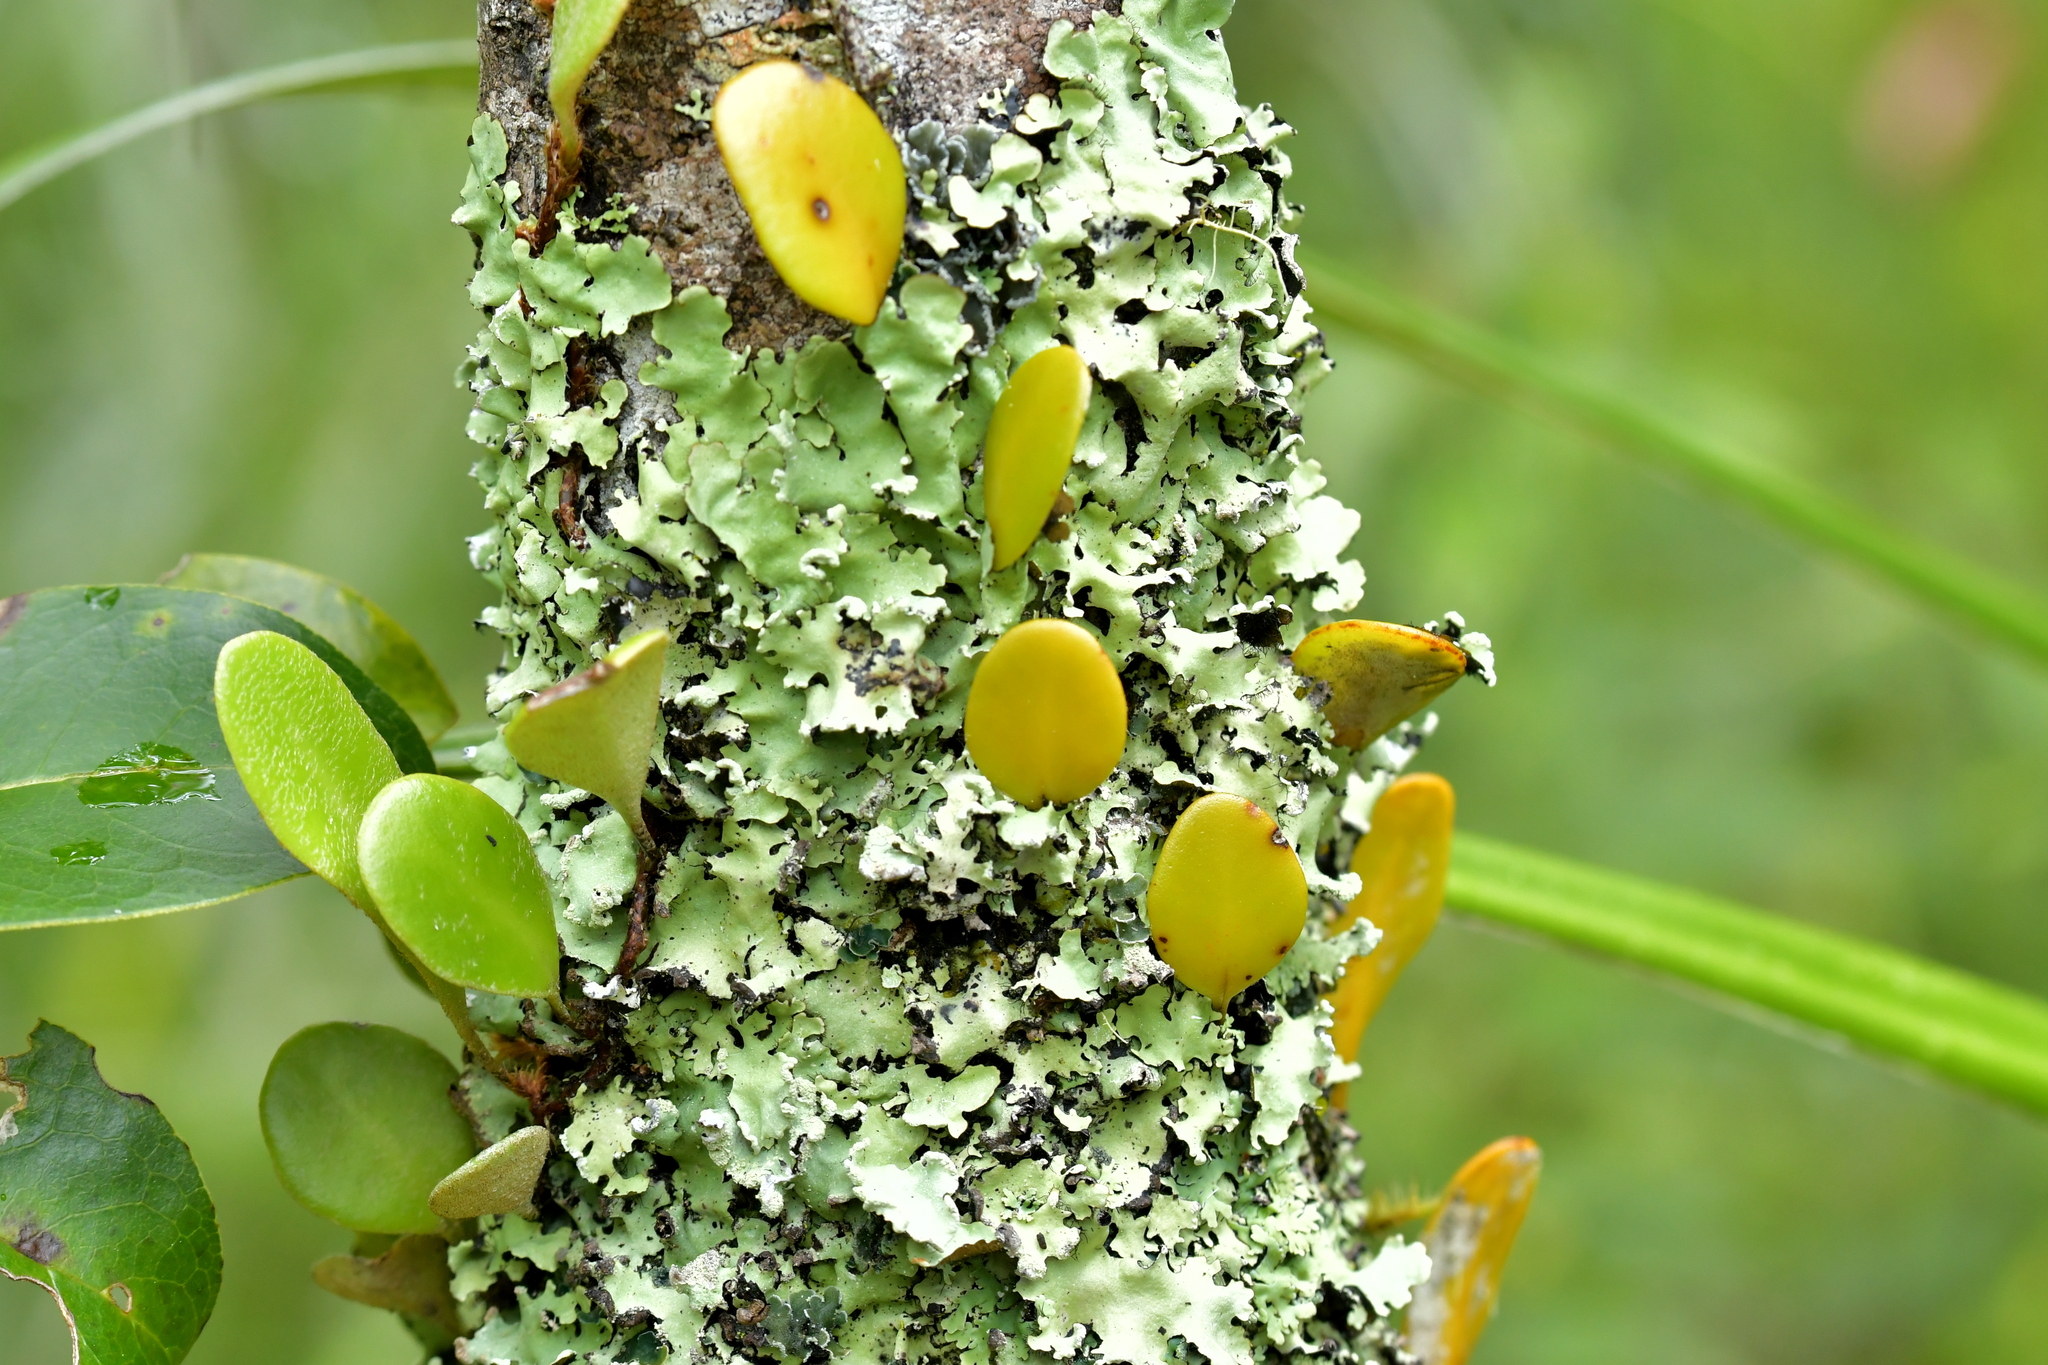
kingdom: Plantae
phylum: Tracheophyta
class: Polypodiopsida
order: Polypodiales
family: Polypodiaceae
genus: Pyrrosia
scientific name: Pyrrosia eleagnifolia
